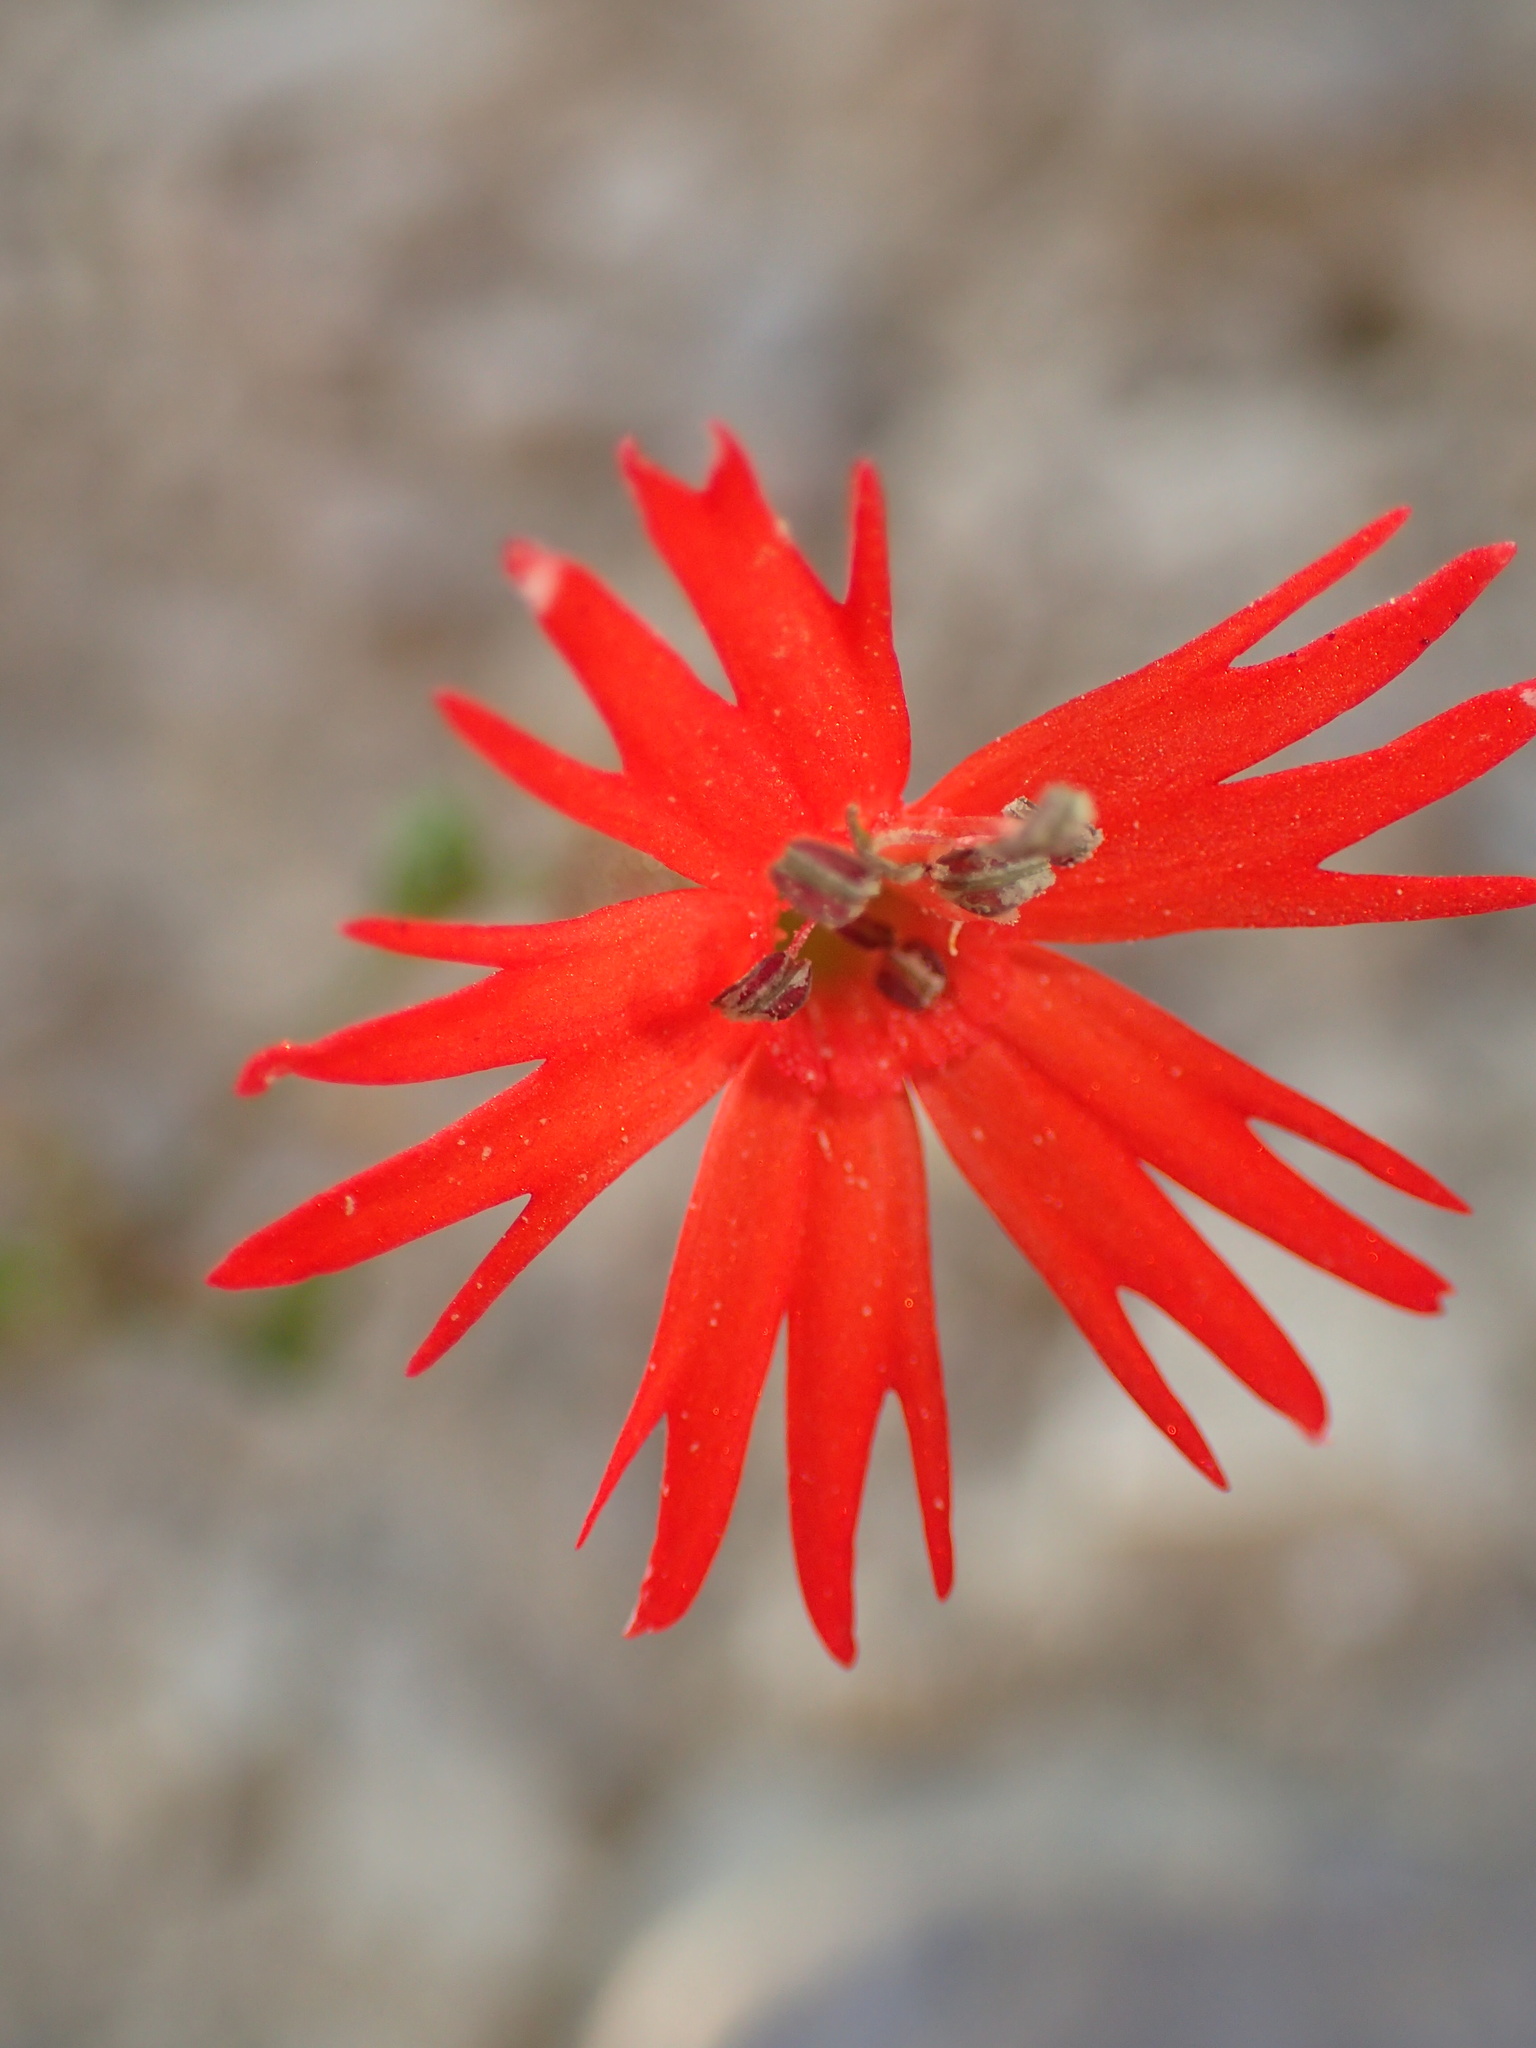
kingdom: Plantae
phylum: Tracheophyta
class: Magnoliopsida
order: Caryophyllales
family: Caryophyllaceae
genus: Silene
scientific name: Silene laciniata
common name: Indian-pink
